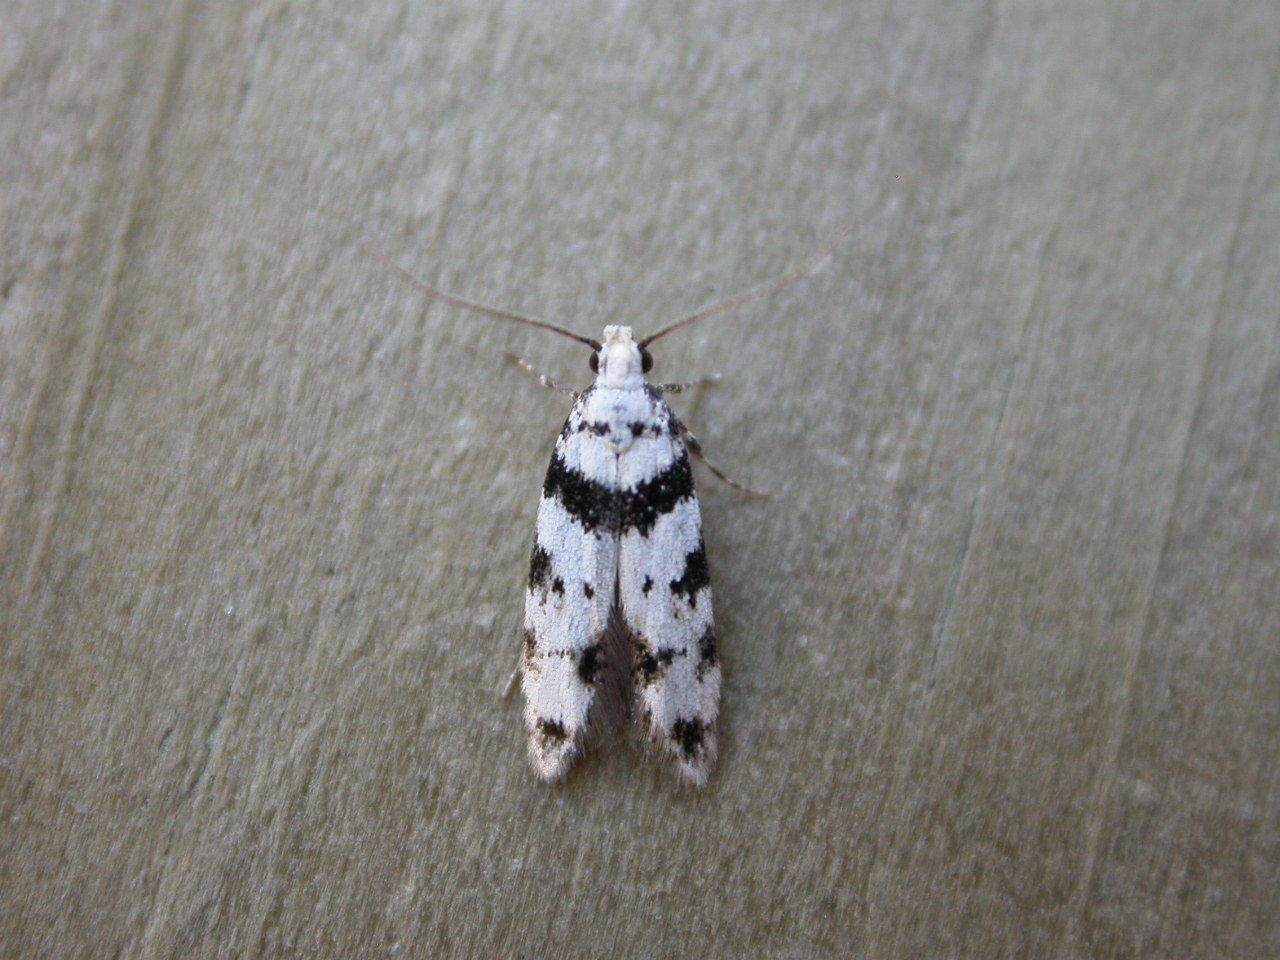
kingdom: Animalia
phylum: Arthropoda
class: Insecta
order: Lepidoptera
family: Gelechiidae
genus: Pseudotelphusa
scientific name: Pseudotelphusa scalella
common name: Black-spotted groundling
